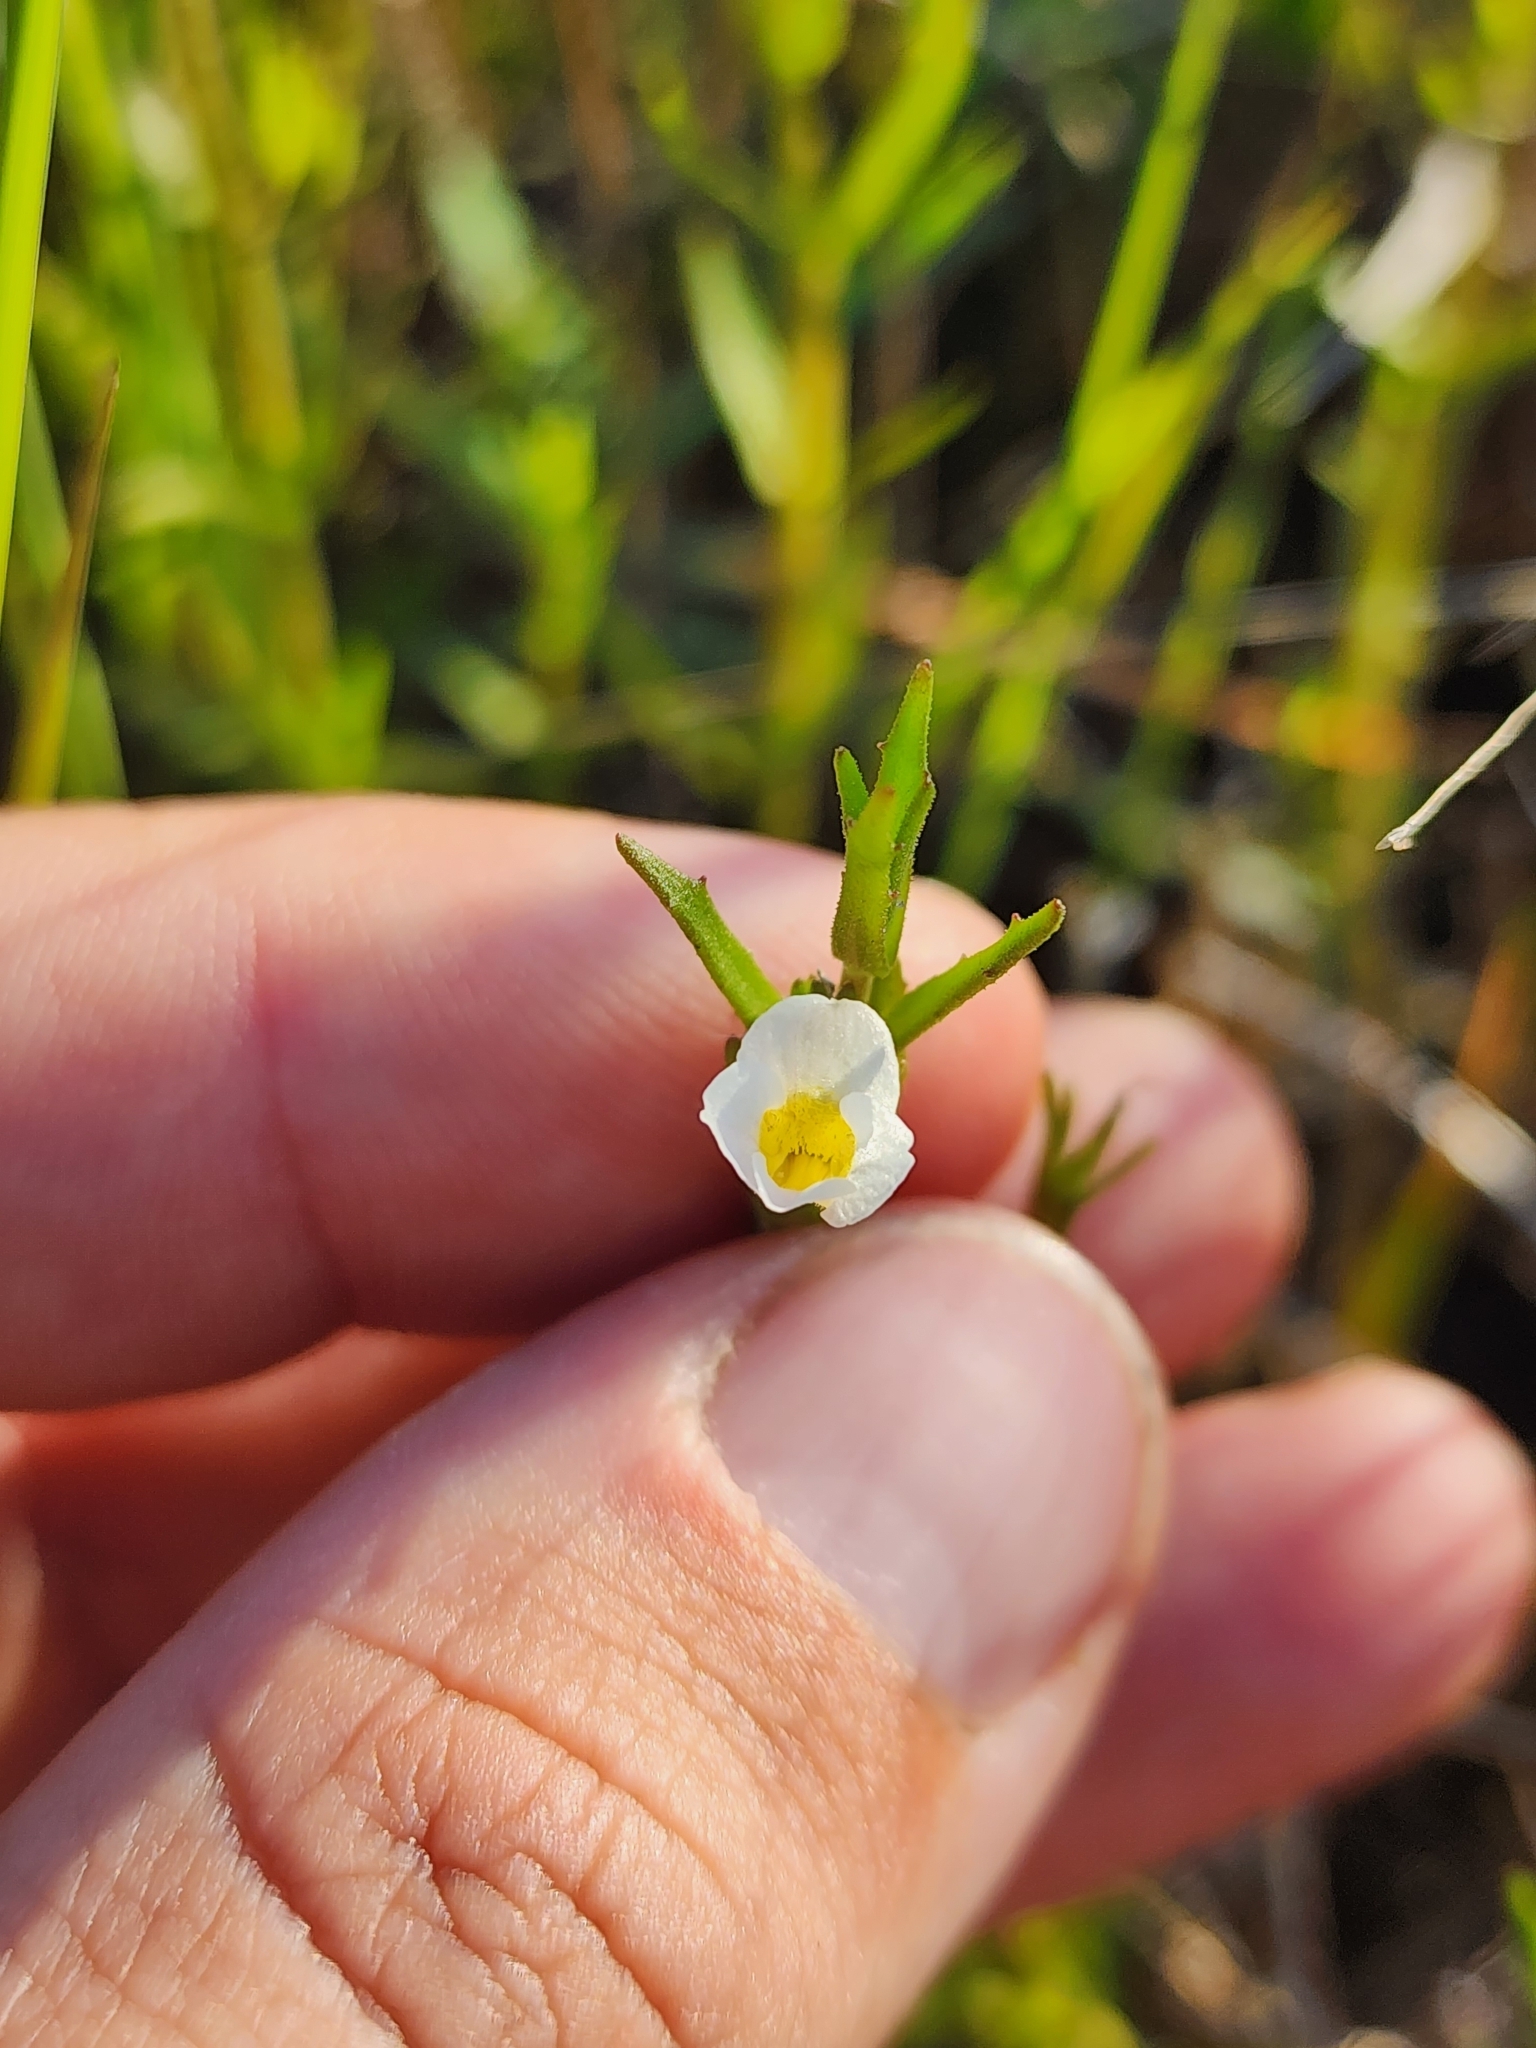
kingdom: Plantae
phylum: Tracheophyta
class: Magnoliopsida
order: Lamiales
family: Plantaginaceae
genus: Gratiola
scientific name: Gratiola ramosa
